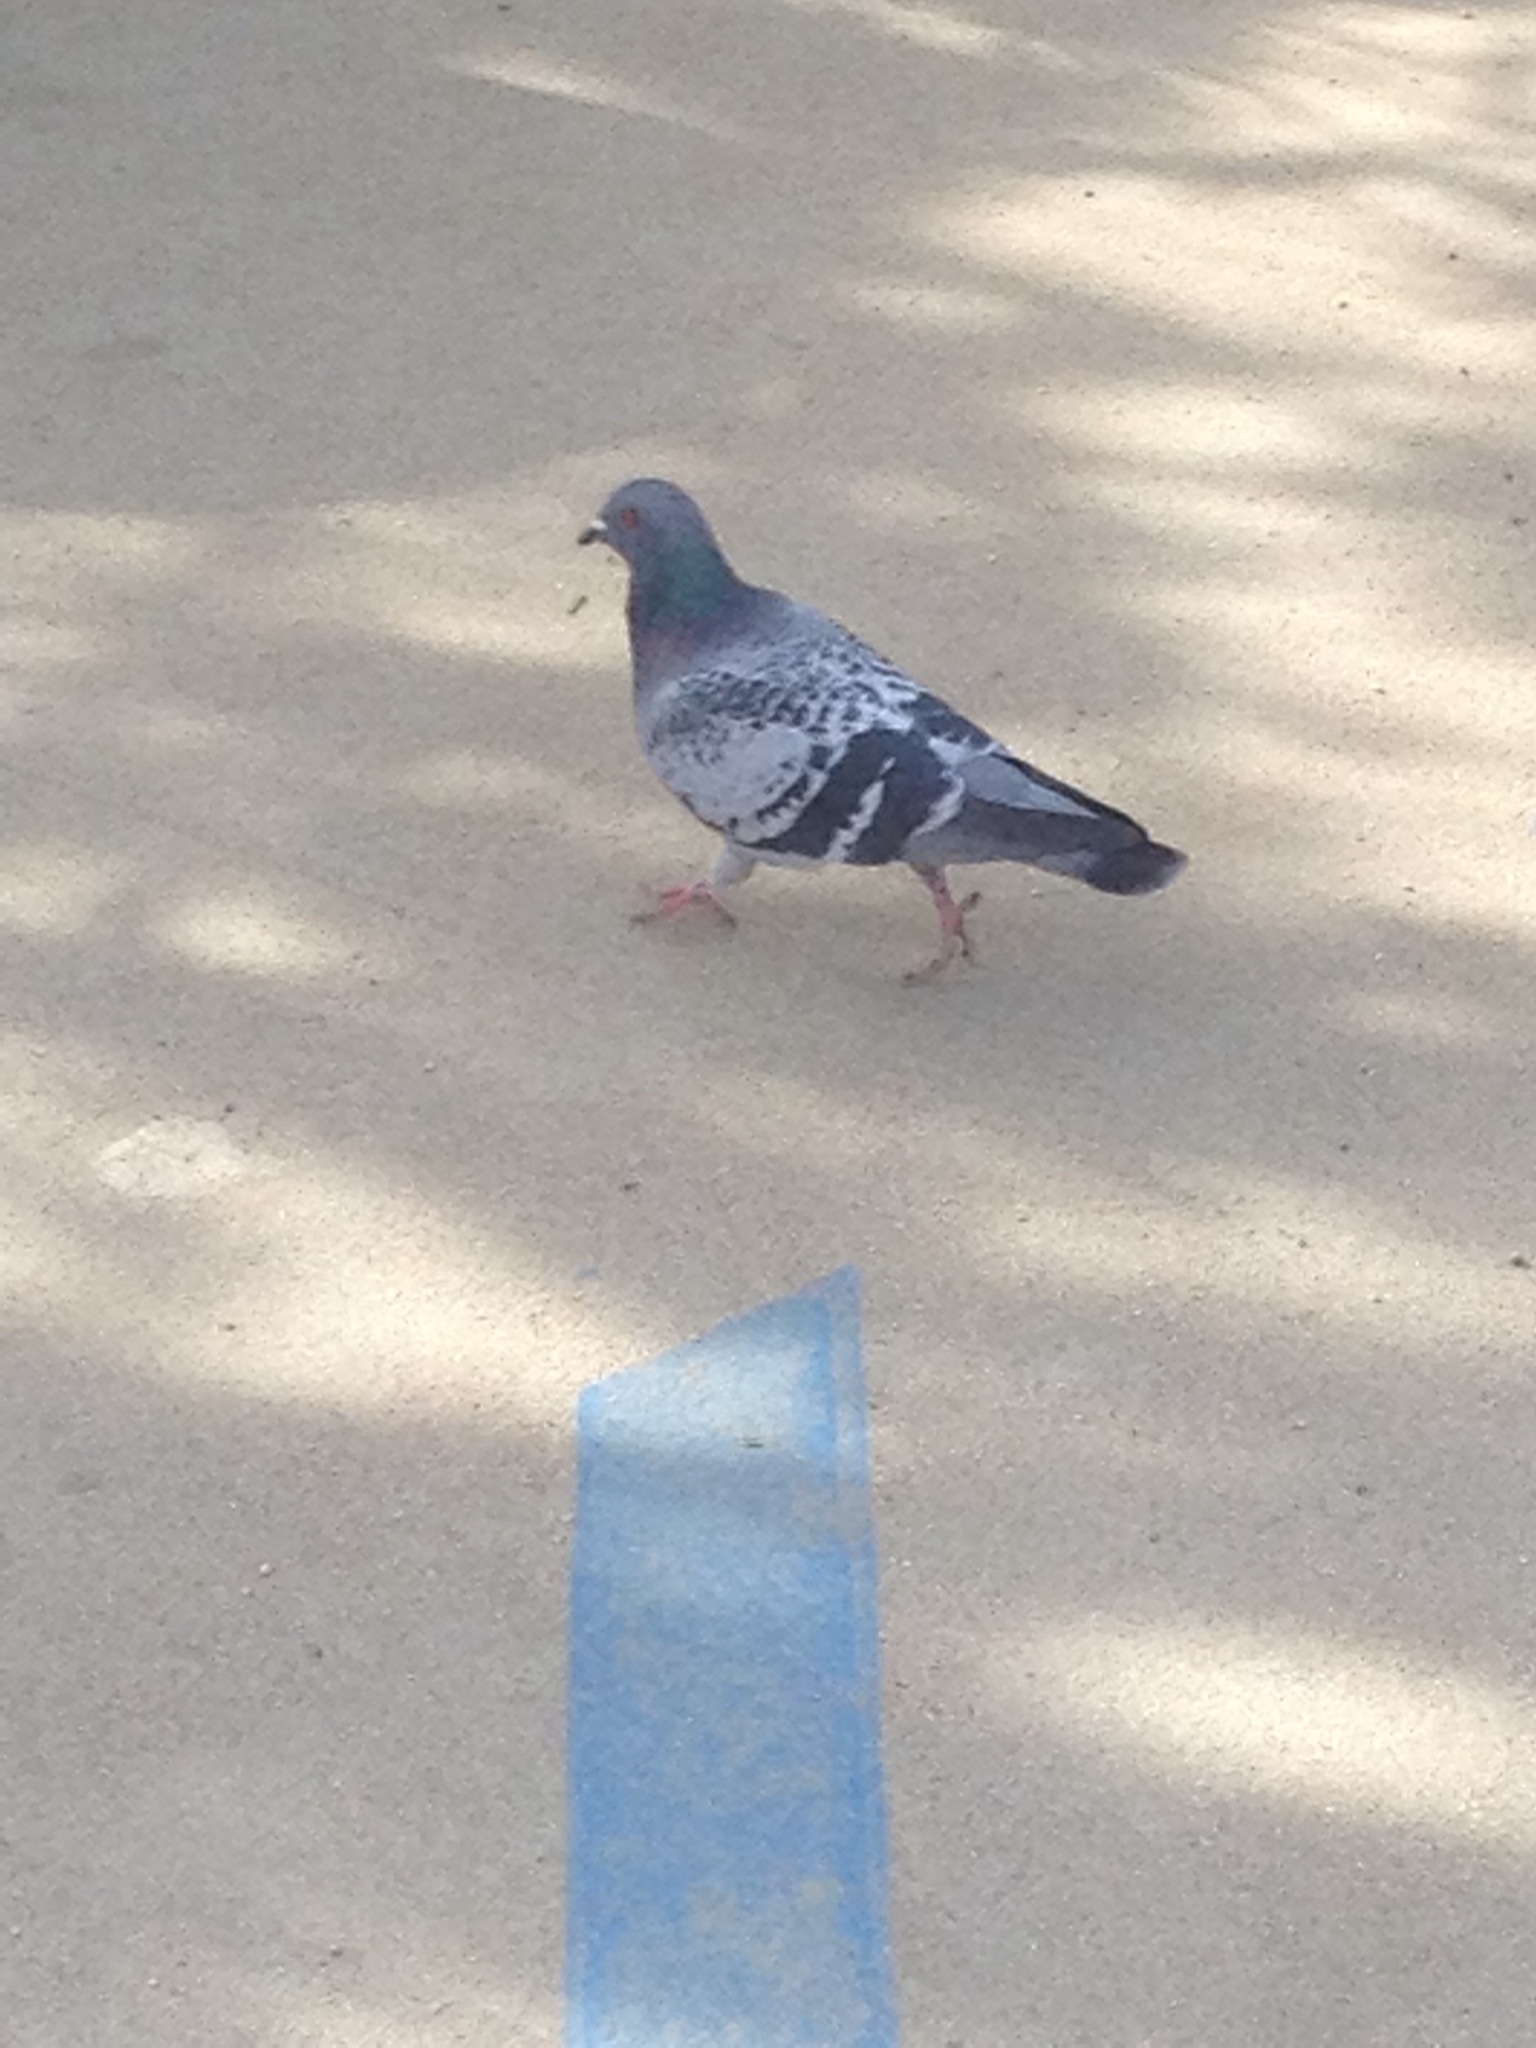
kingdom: Animalia
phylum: Chordata
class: Aves
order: Columbiformes
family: Columbidae
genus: Columba
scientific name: Columba livia
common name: Rock pigeon
